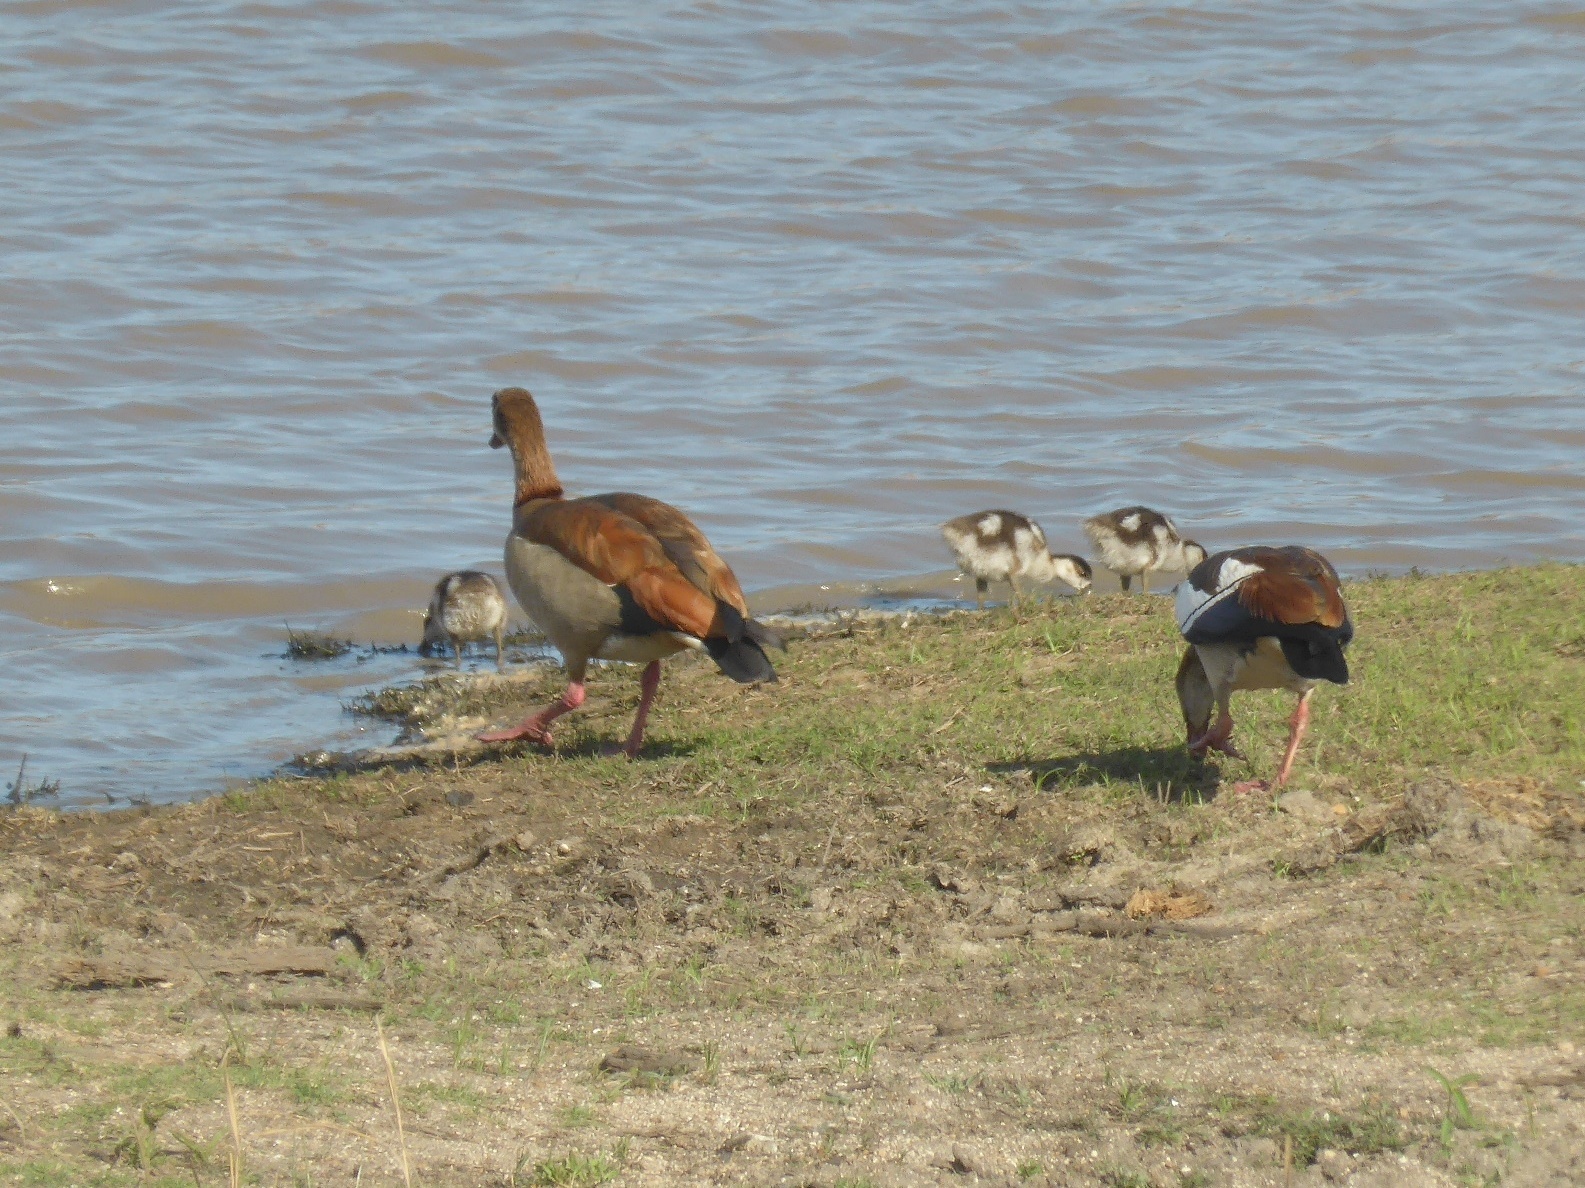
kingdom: Animalia
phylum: Chordata
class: Aves
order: Anseriformes
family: Anatidae
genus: Alopochen
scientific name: Alopochen aegyptiaca
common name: Egyptian goose
